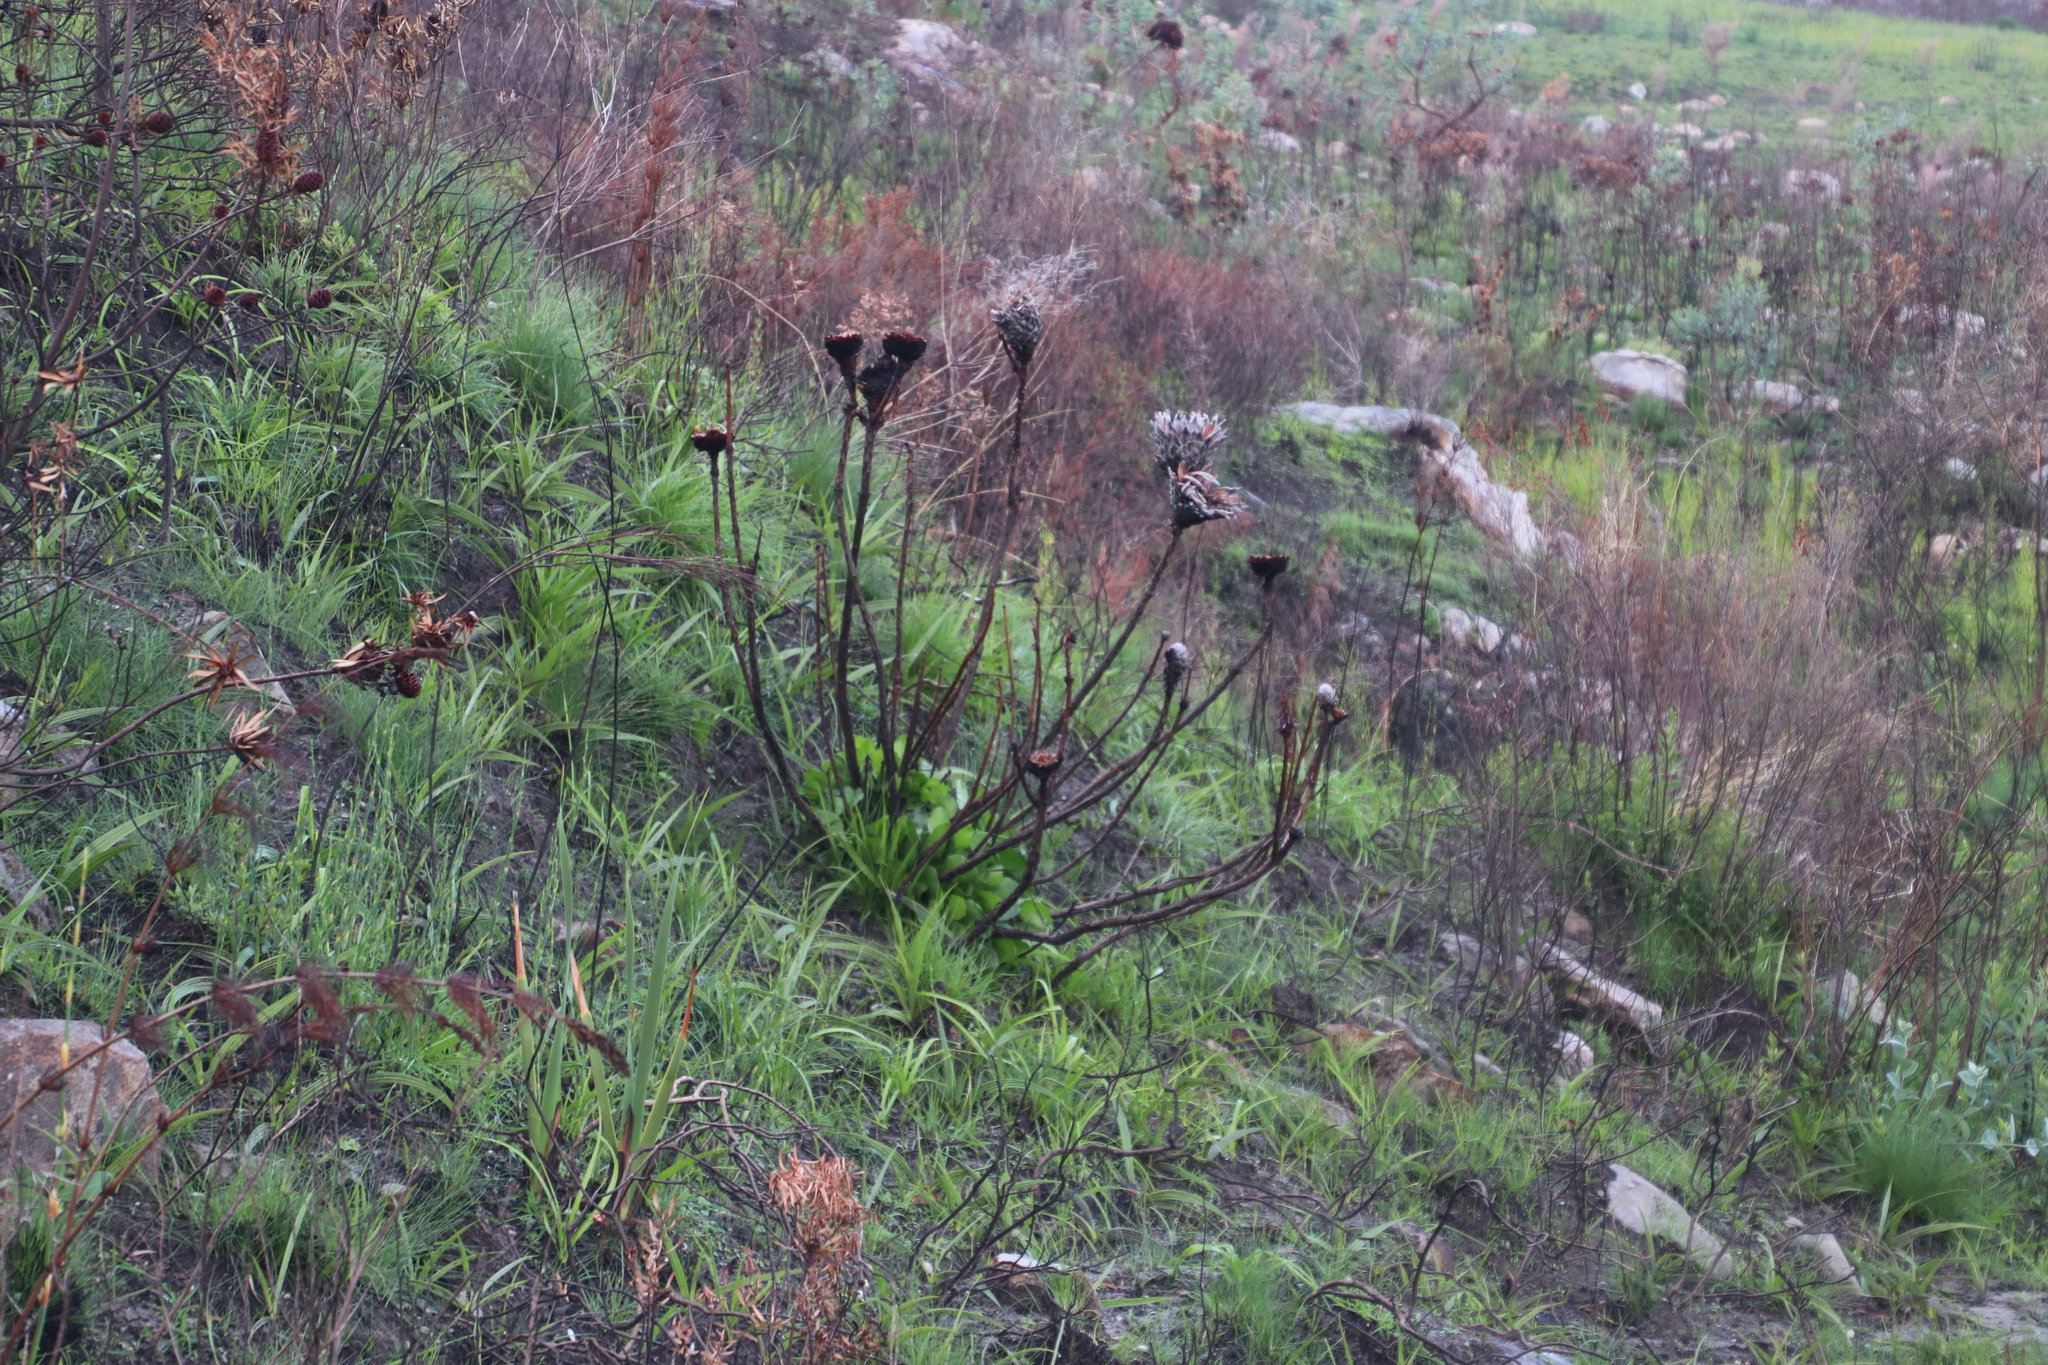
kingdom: Plantae
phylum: Tracheophyta
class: Magnoliopsida
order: Proteales
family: Proteaceae
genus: Protea
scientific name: Protea cynaroides
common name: King protea
